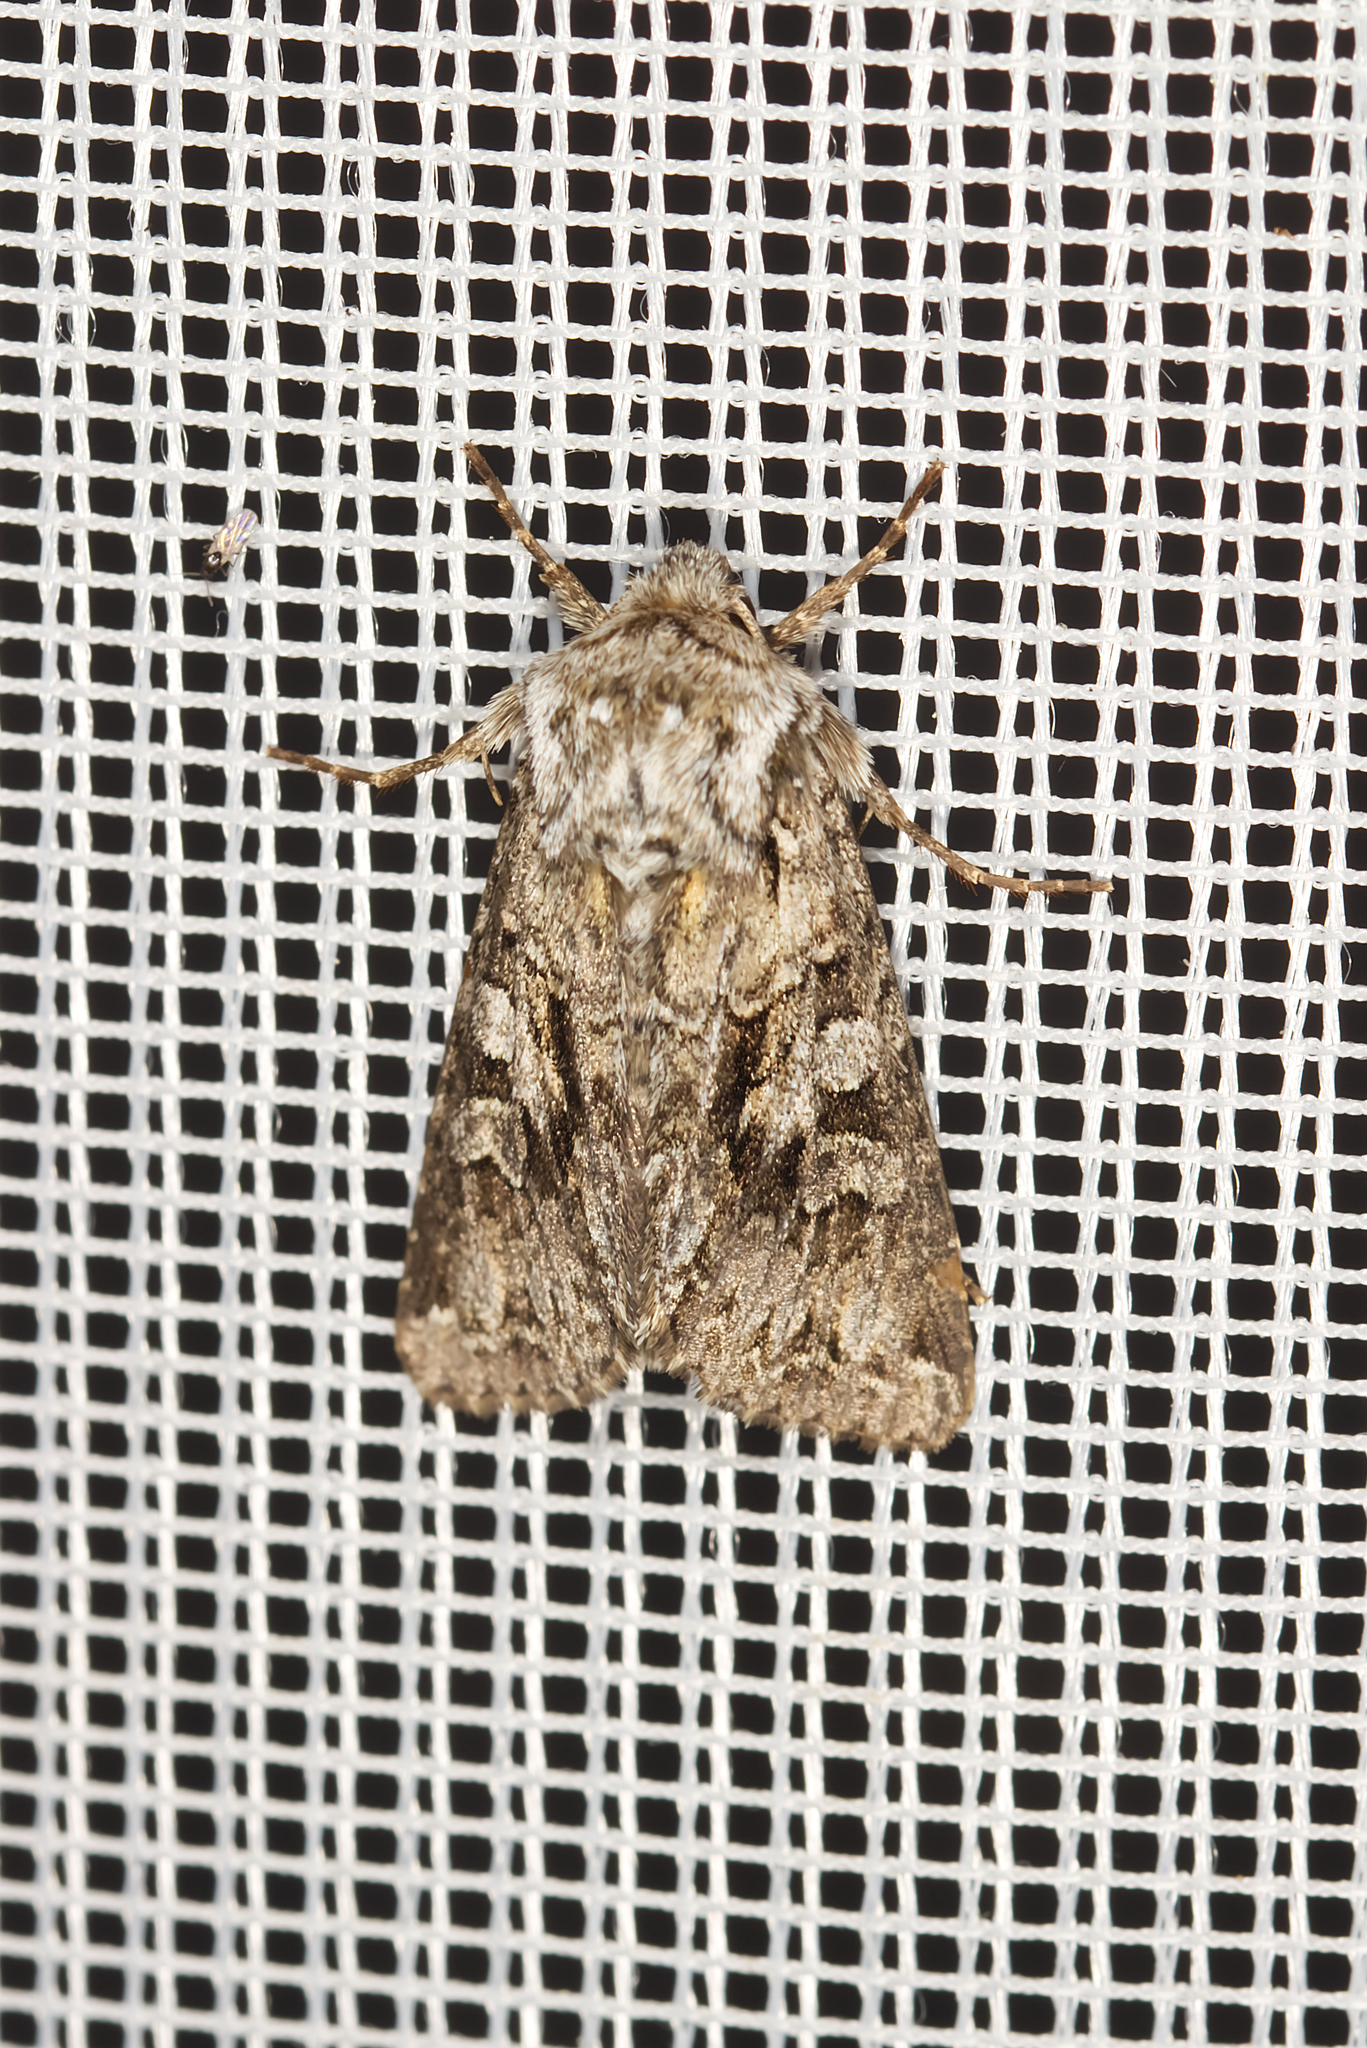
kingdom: Animalia
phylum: Arthropoda
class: Insecta
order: Lepidoptera
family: Noctuidae
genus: Hada
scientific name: Hada plebeja
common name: Shears
